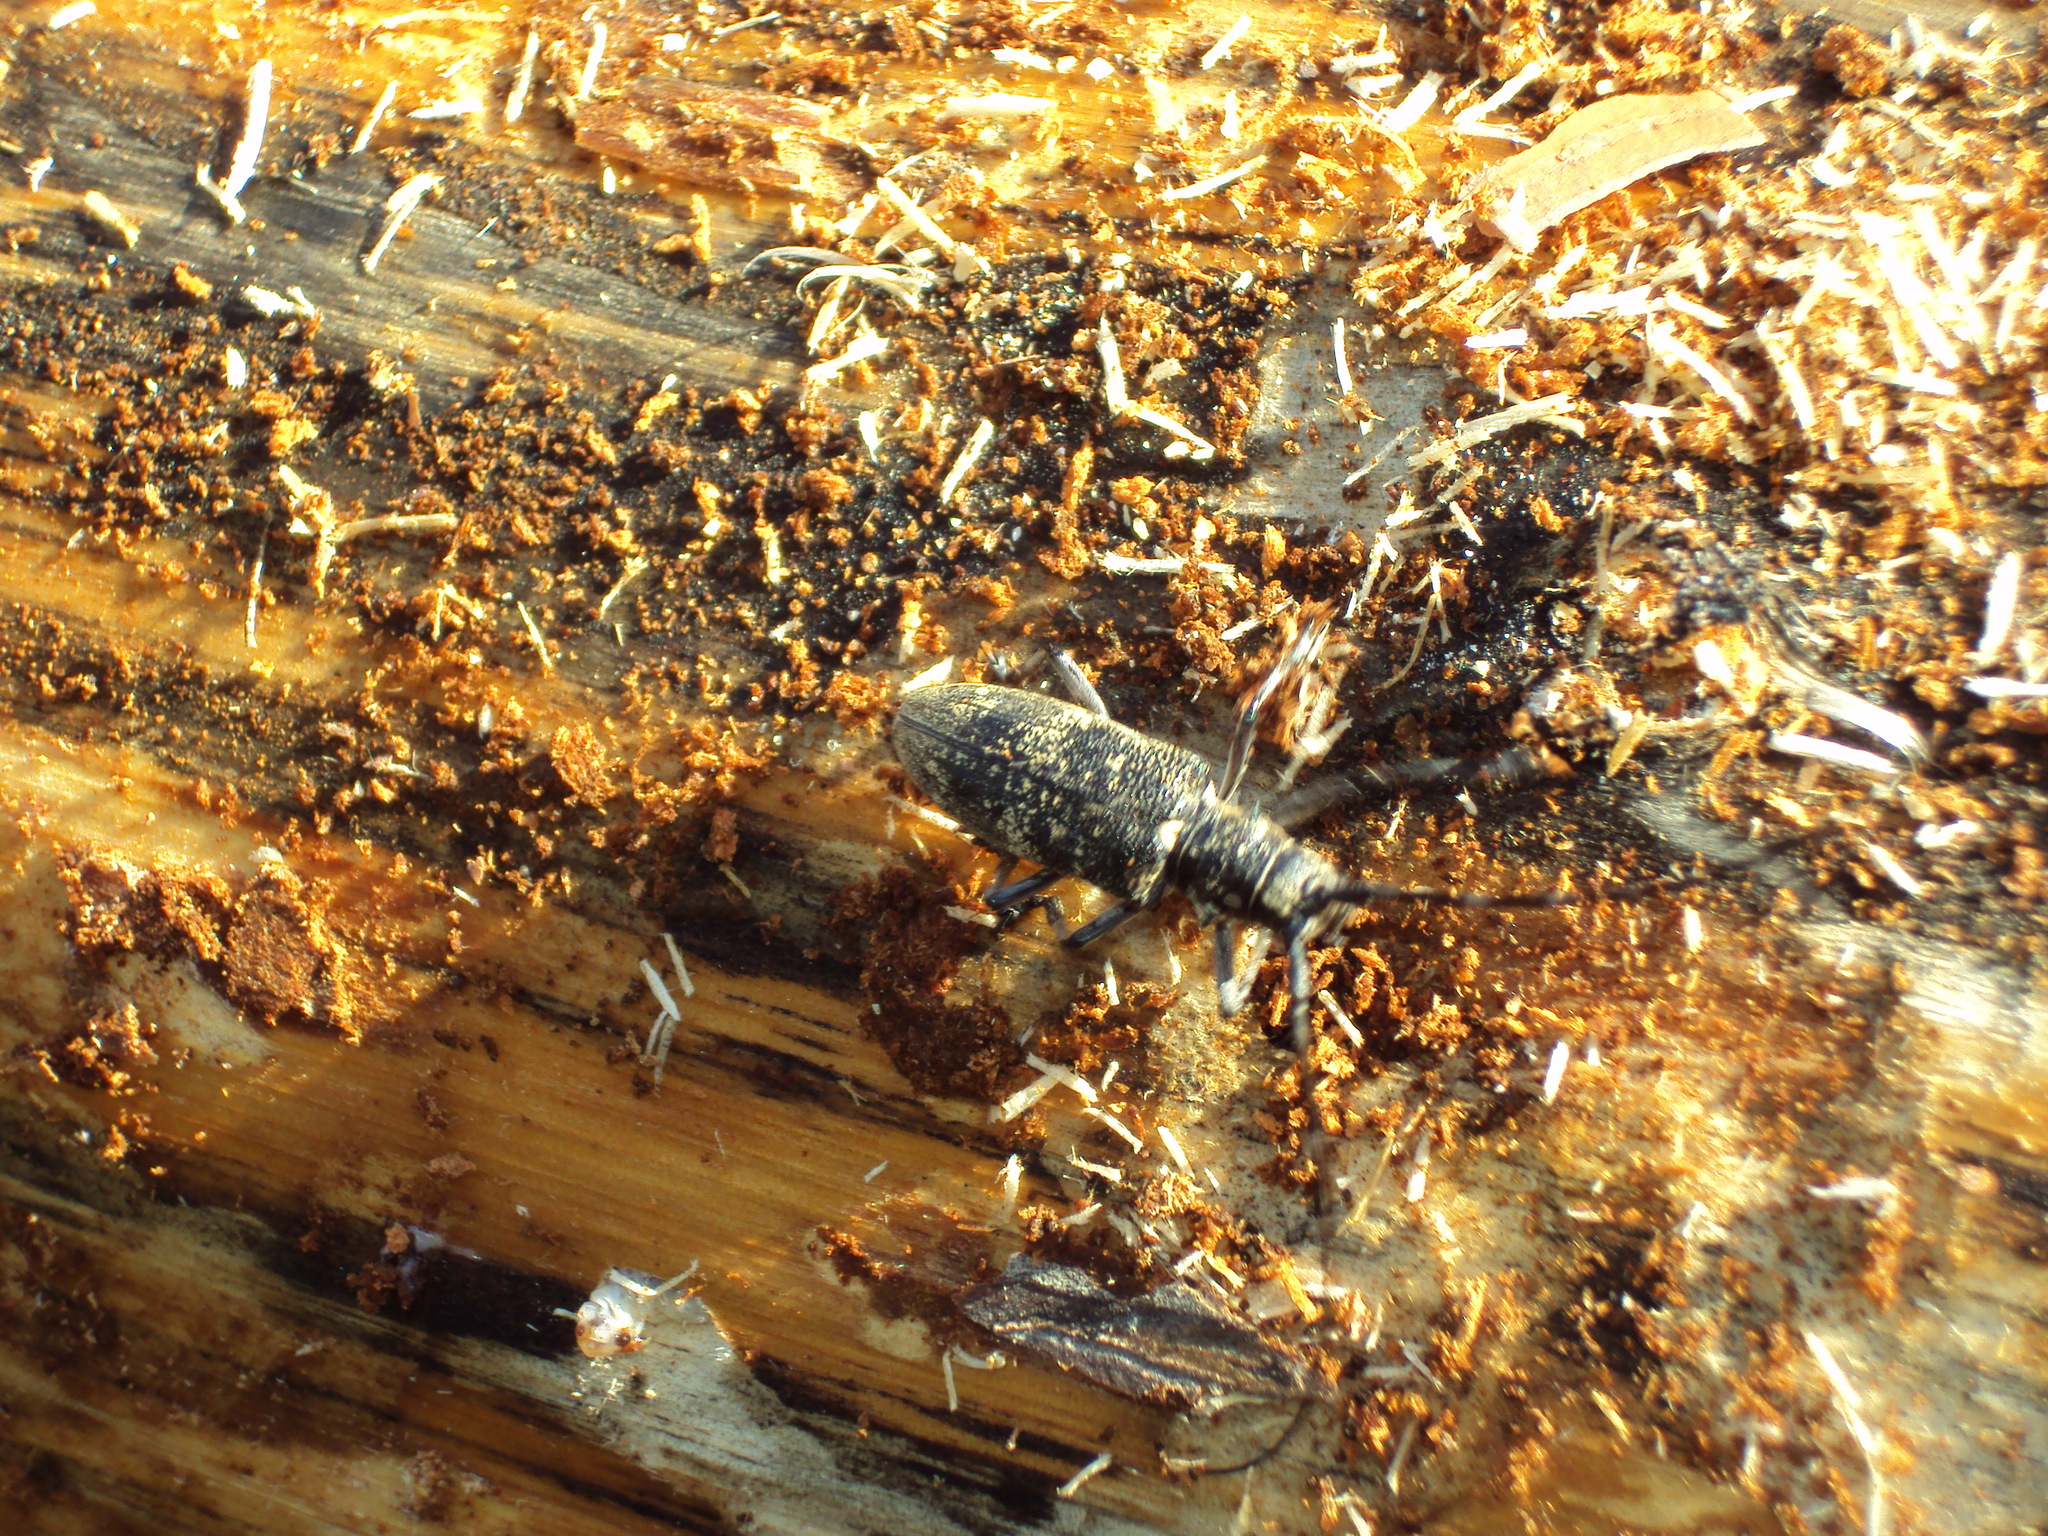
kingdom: Animalia
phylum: Arthropoda
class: Insecta
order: Coleoptera
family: Cerambycidae
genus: Monochamus
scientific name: Monochamus galloprovincialis
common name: Pine sawyer
